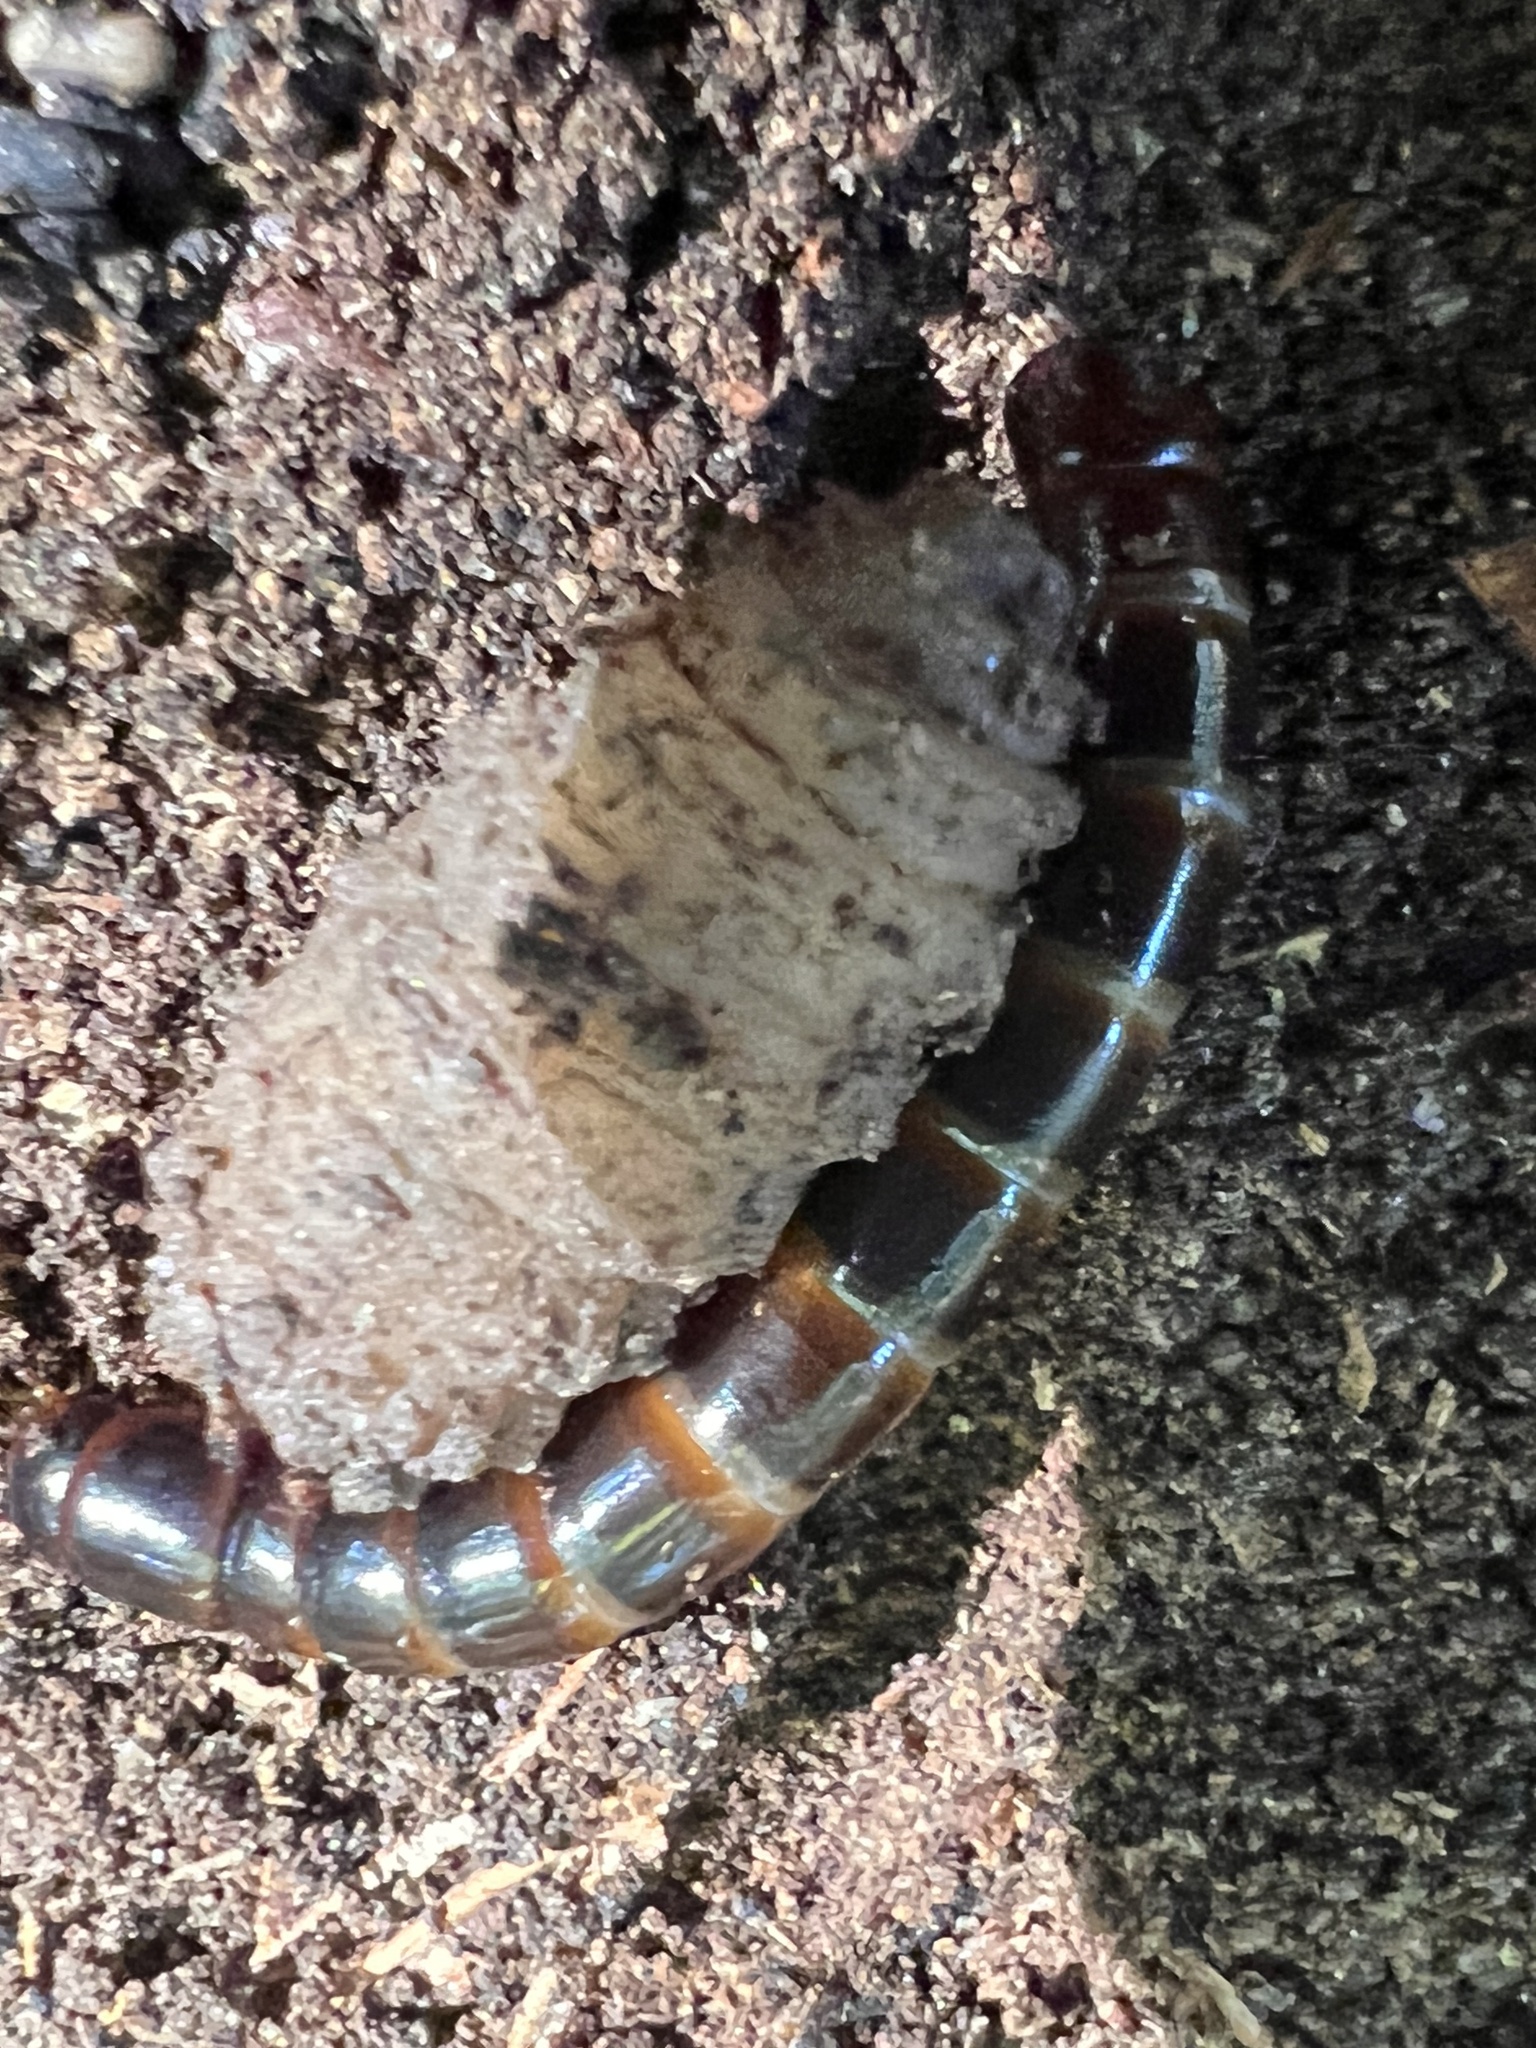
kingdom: Animalia
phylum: Arthropoda
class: Insecta
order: Coleoptera
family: Tenebrionidae
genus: Meracantha
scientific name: Meracantha contracta
